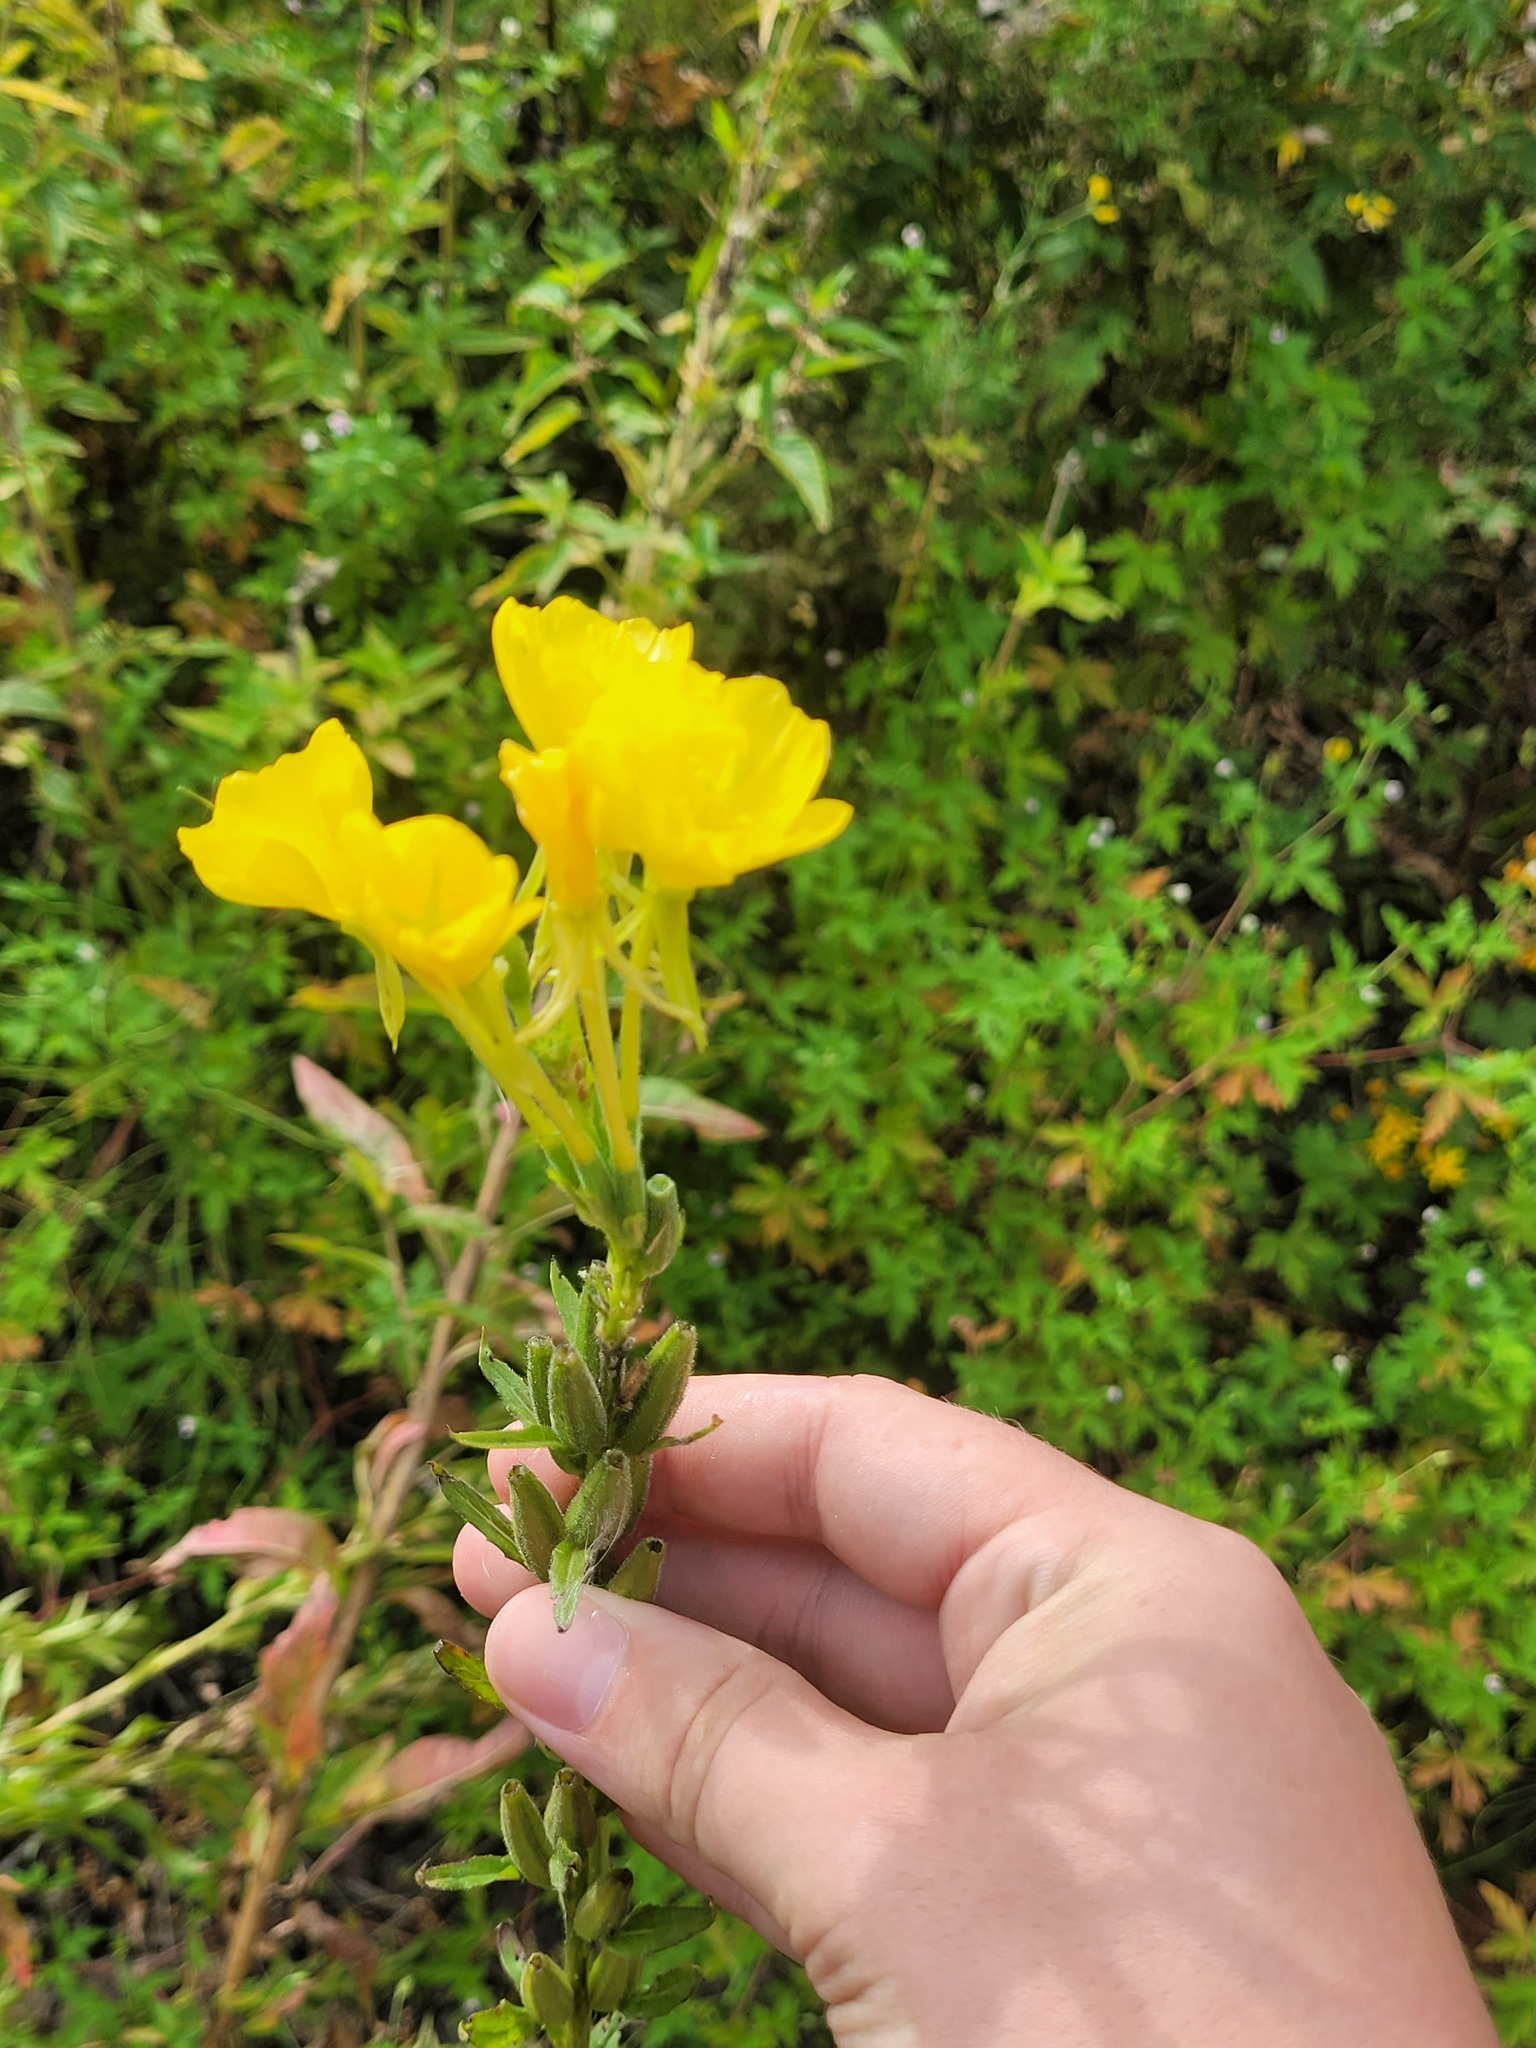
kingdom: Plantae
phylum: Tracheophyta
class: Magnoliopsida
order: Myrtales
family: Onagraceae
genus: Oenothera
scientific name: Oenothera biennis
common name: Common evening-primrose
